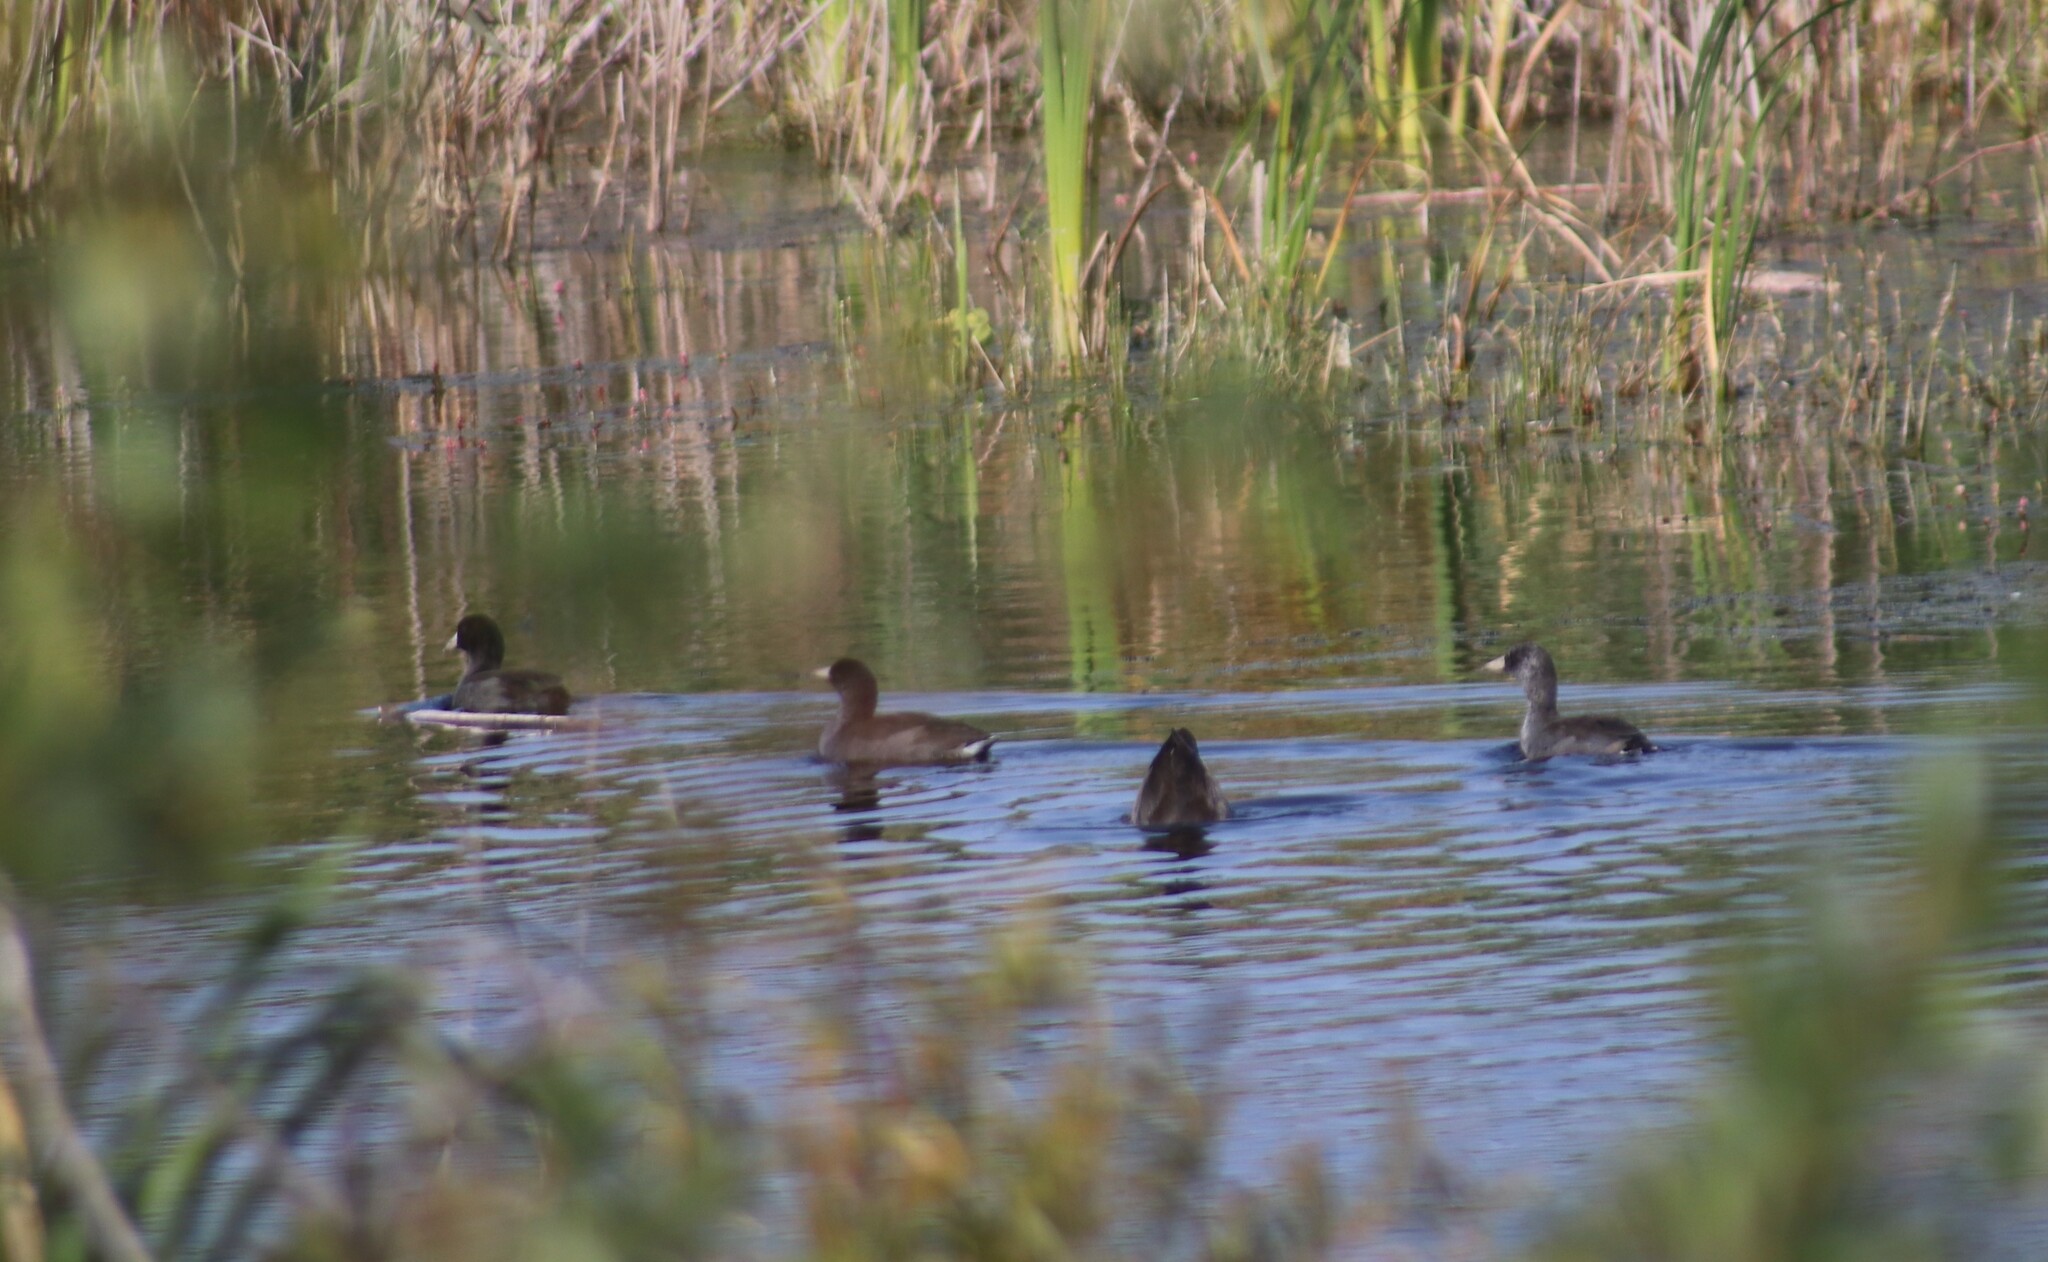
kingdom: Animalia
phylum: Chordata
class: Aves
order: Gruiformes
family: Rallidae
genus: Fulica
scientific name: Fulica americana
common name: American coot
